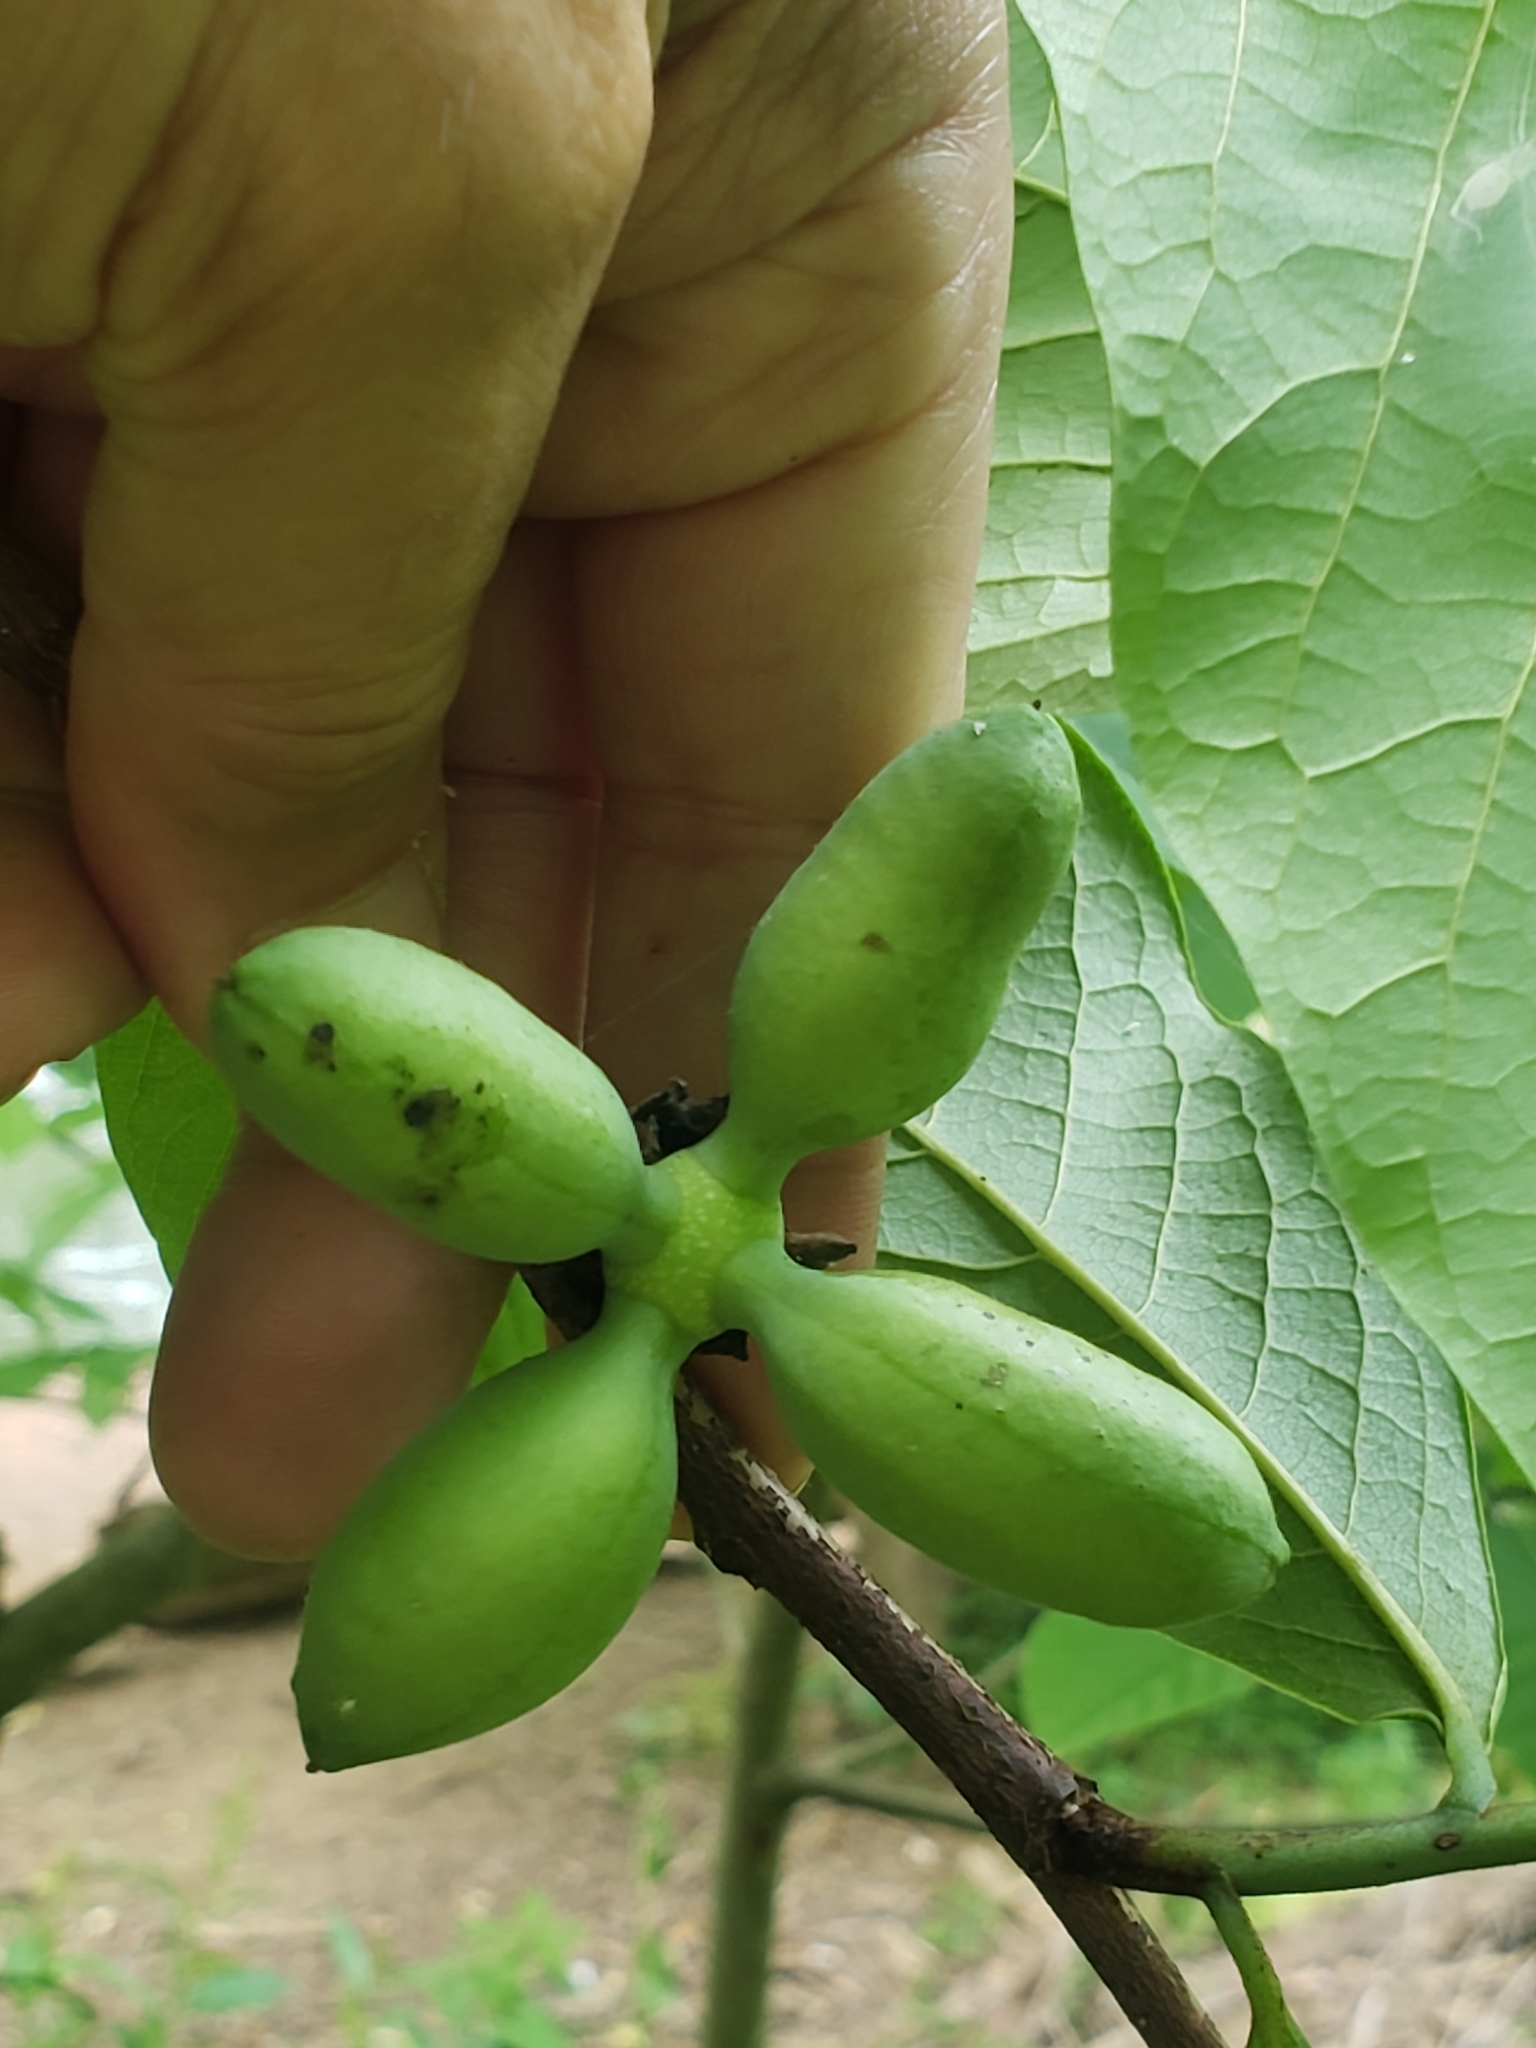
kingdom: Plantae
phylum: Tracheophyta
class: Magnoliopsida
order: Magnoliales
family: Annonaceae
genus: Asimina
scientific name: Asimina triloba
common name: Dog-banana
